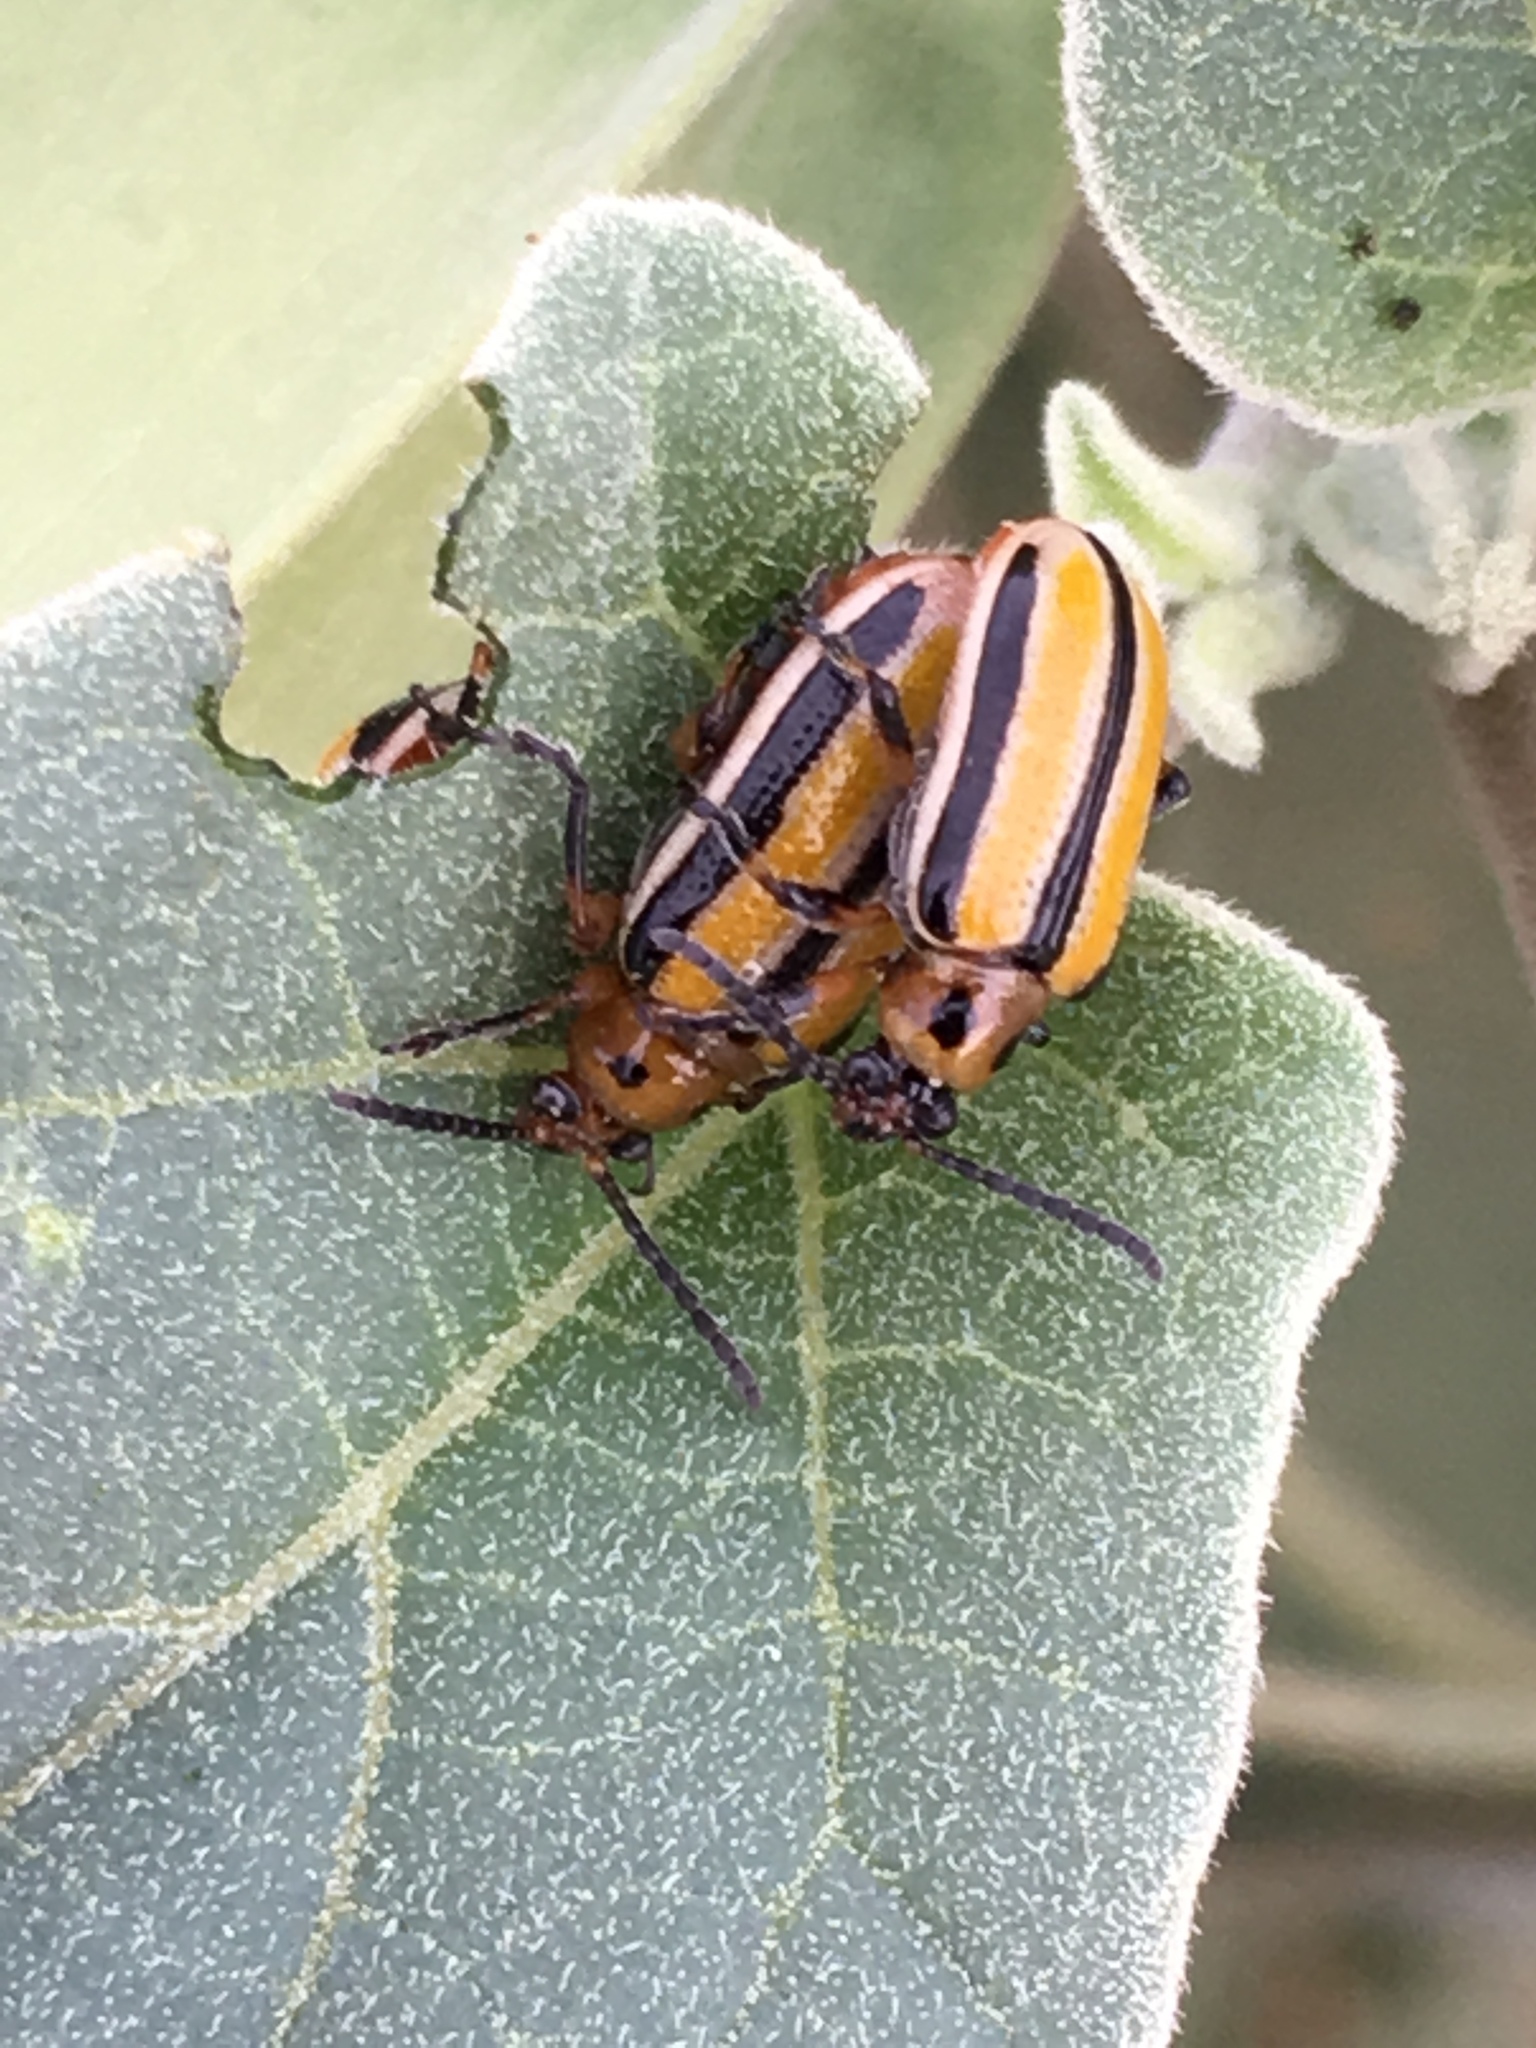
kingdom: Animalia
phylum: Arthropoda
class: Insecta
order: Coleoptera
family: Chrysomelidae
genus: Lema
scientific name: Lema daturaphila
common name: Leaf beetle
